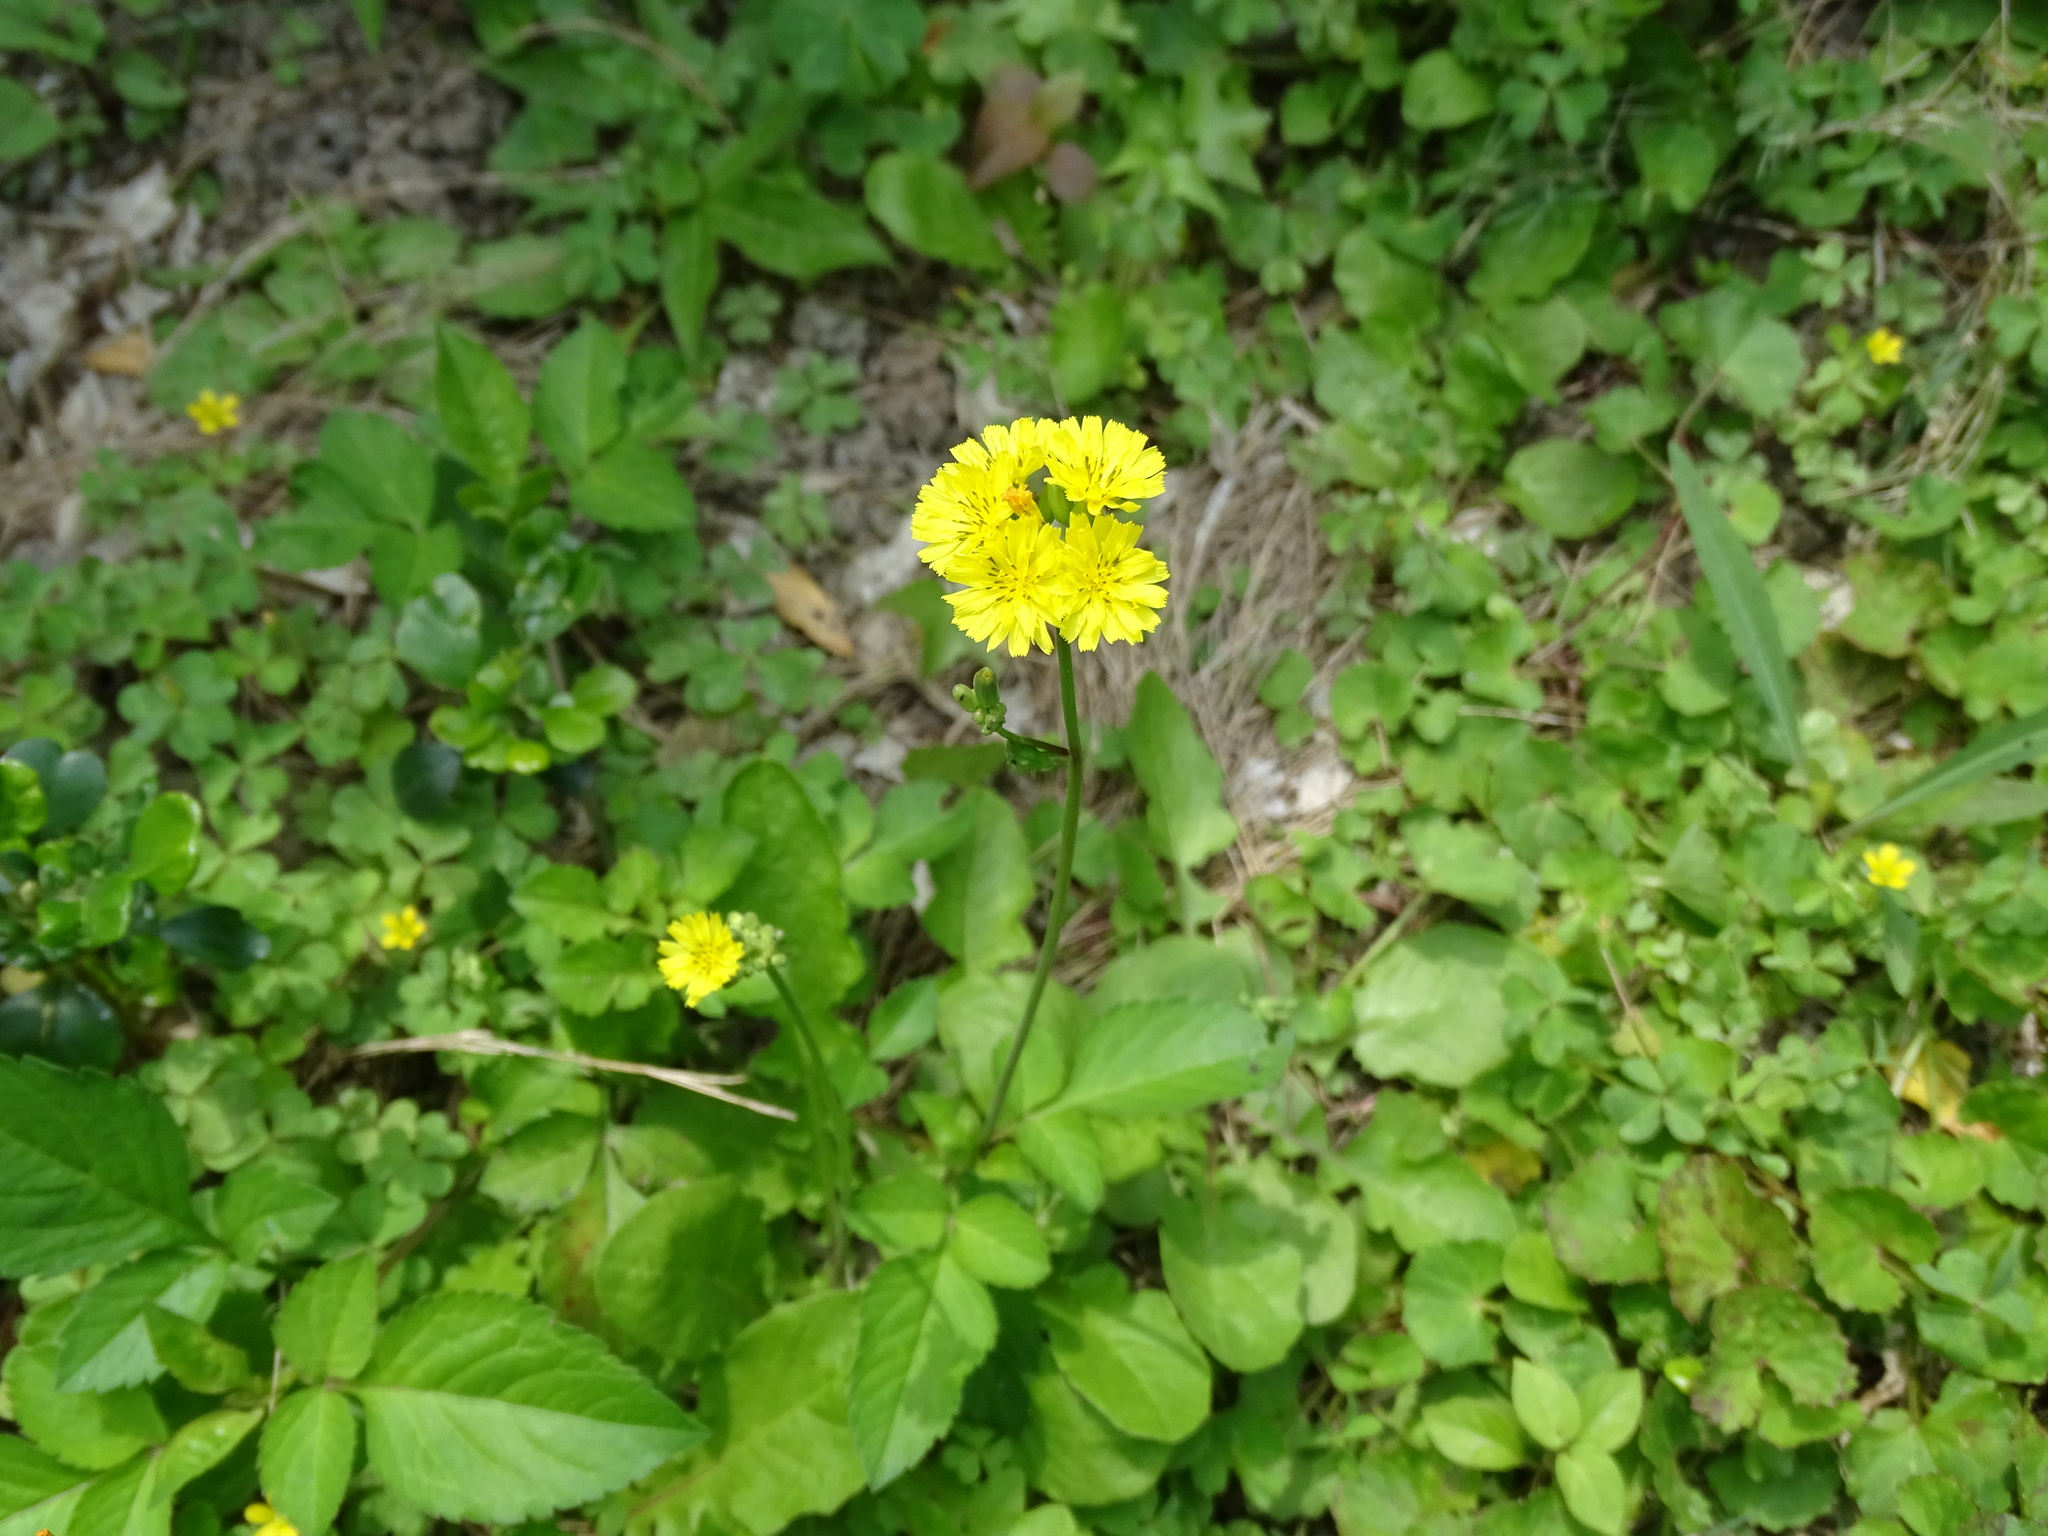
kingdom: Plantae
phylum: Tracheophyta
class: Magnoliopsida
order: Asterales
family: Asteraceae
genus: Youngia
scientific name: Youngia japonica
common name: Oriental false hawksbeard
